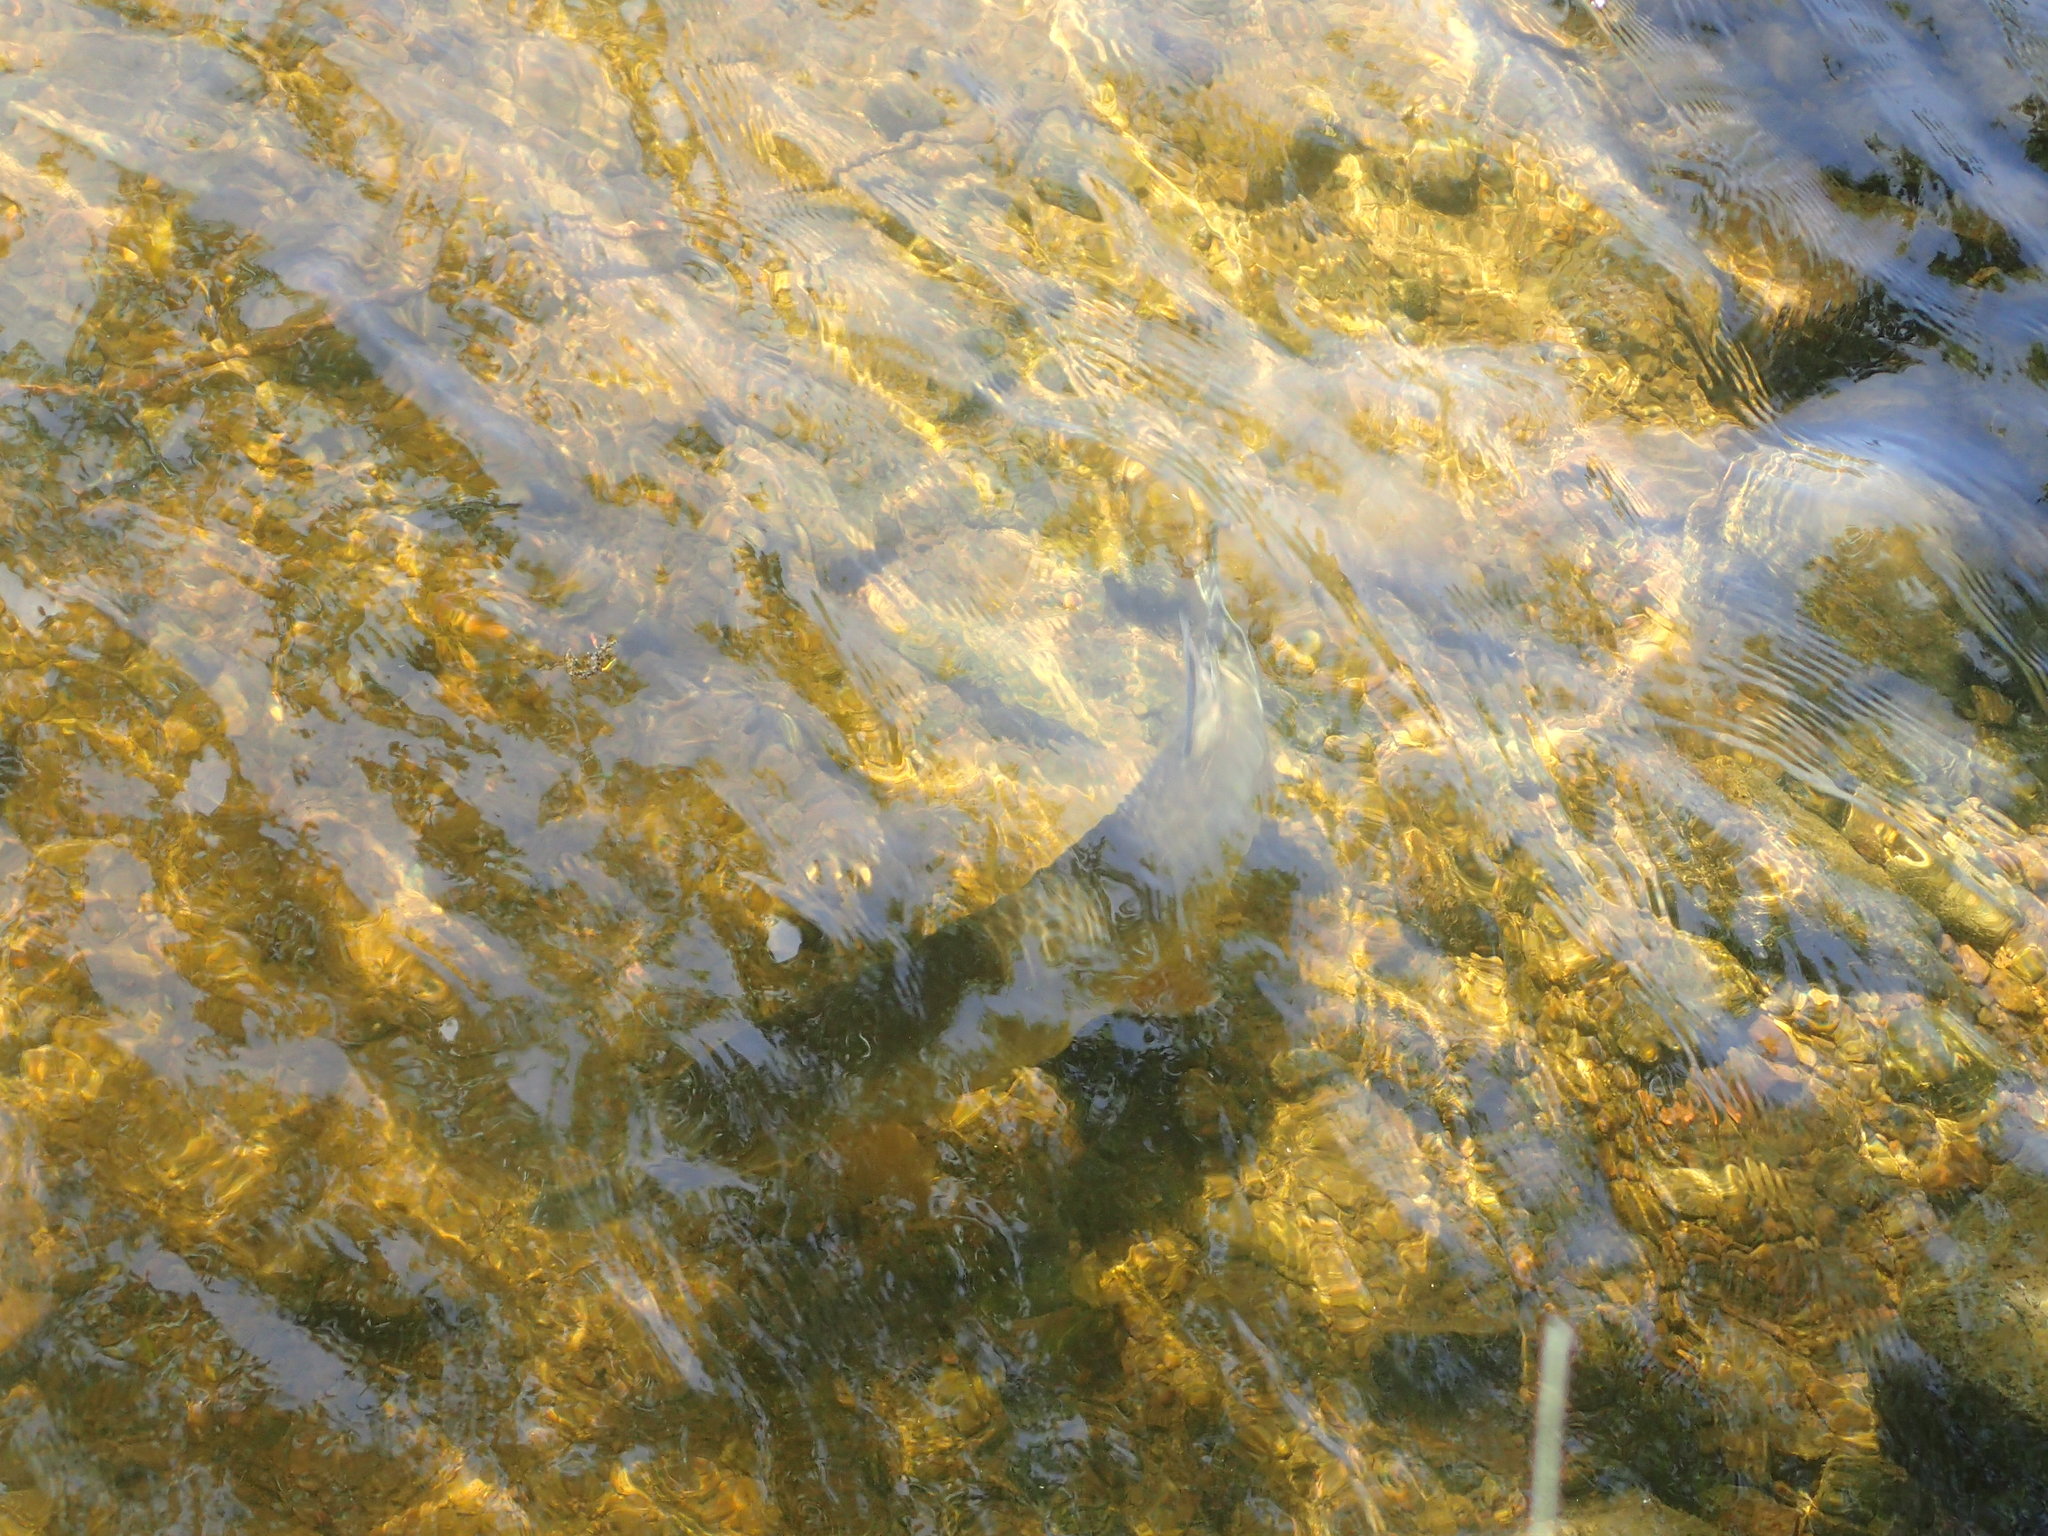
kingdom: Animalia
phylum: Chordata
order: Esociformes
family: Esocidae
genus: Esox
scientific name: Esox masquinongy
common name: Muskellunge
